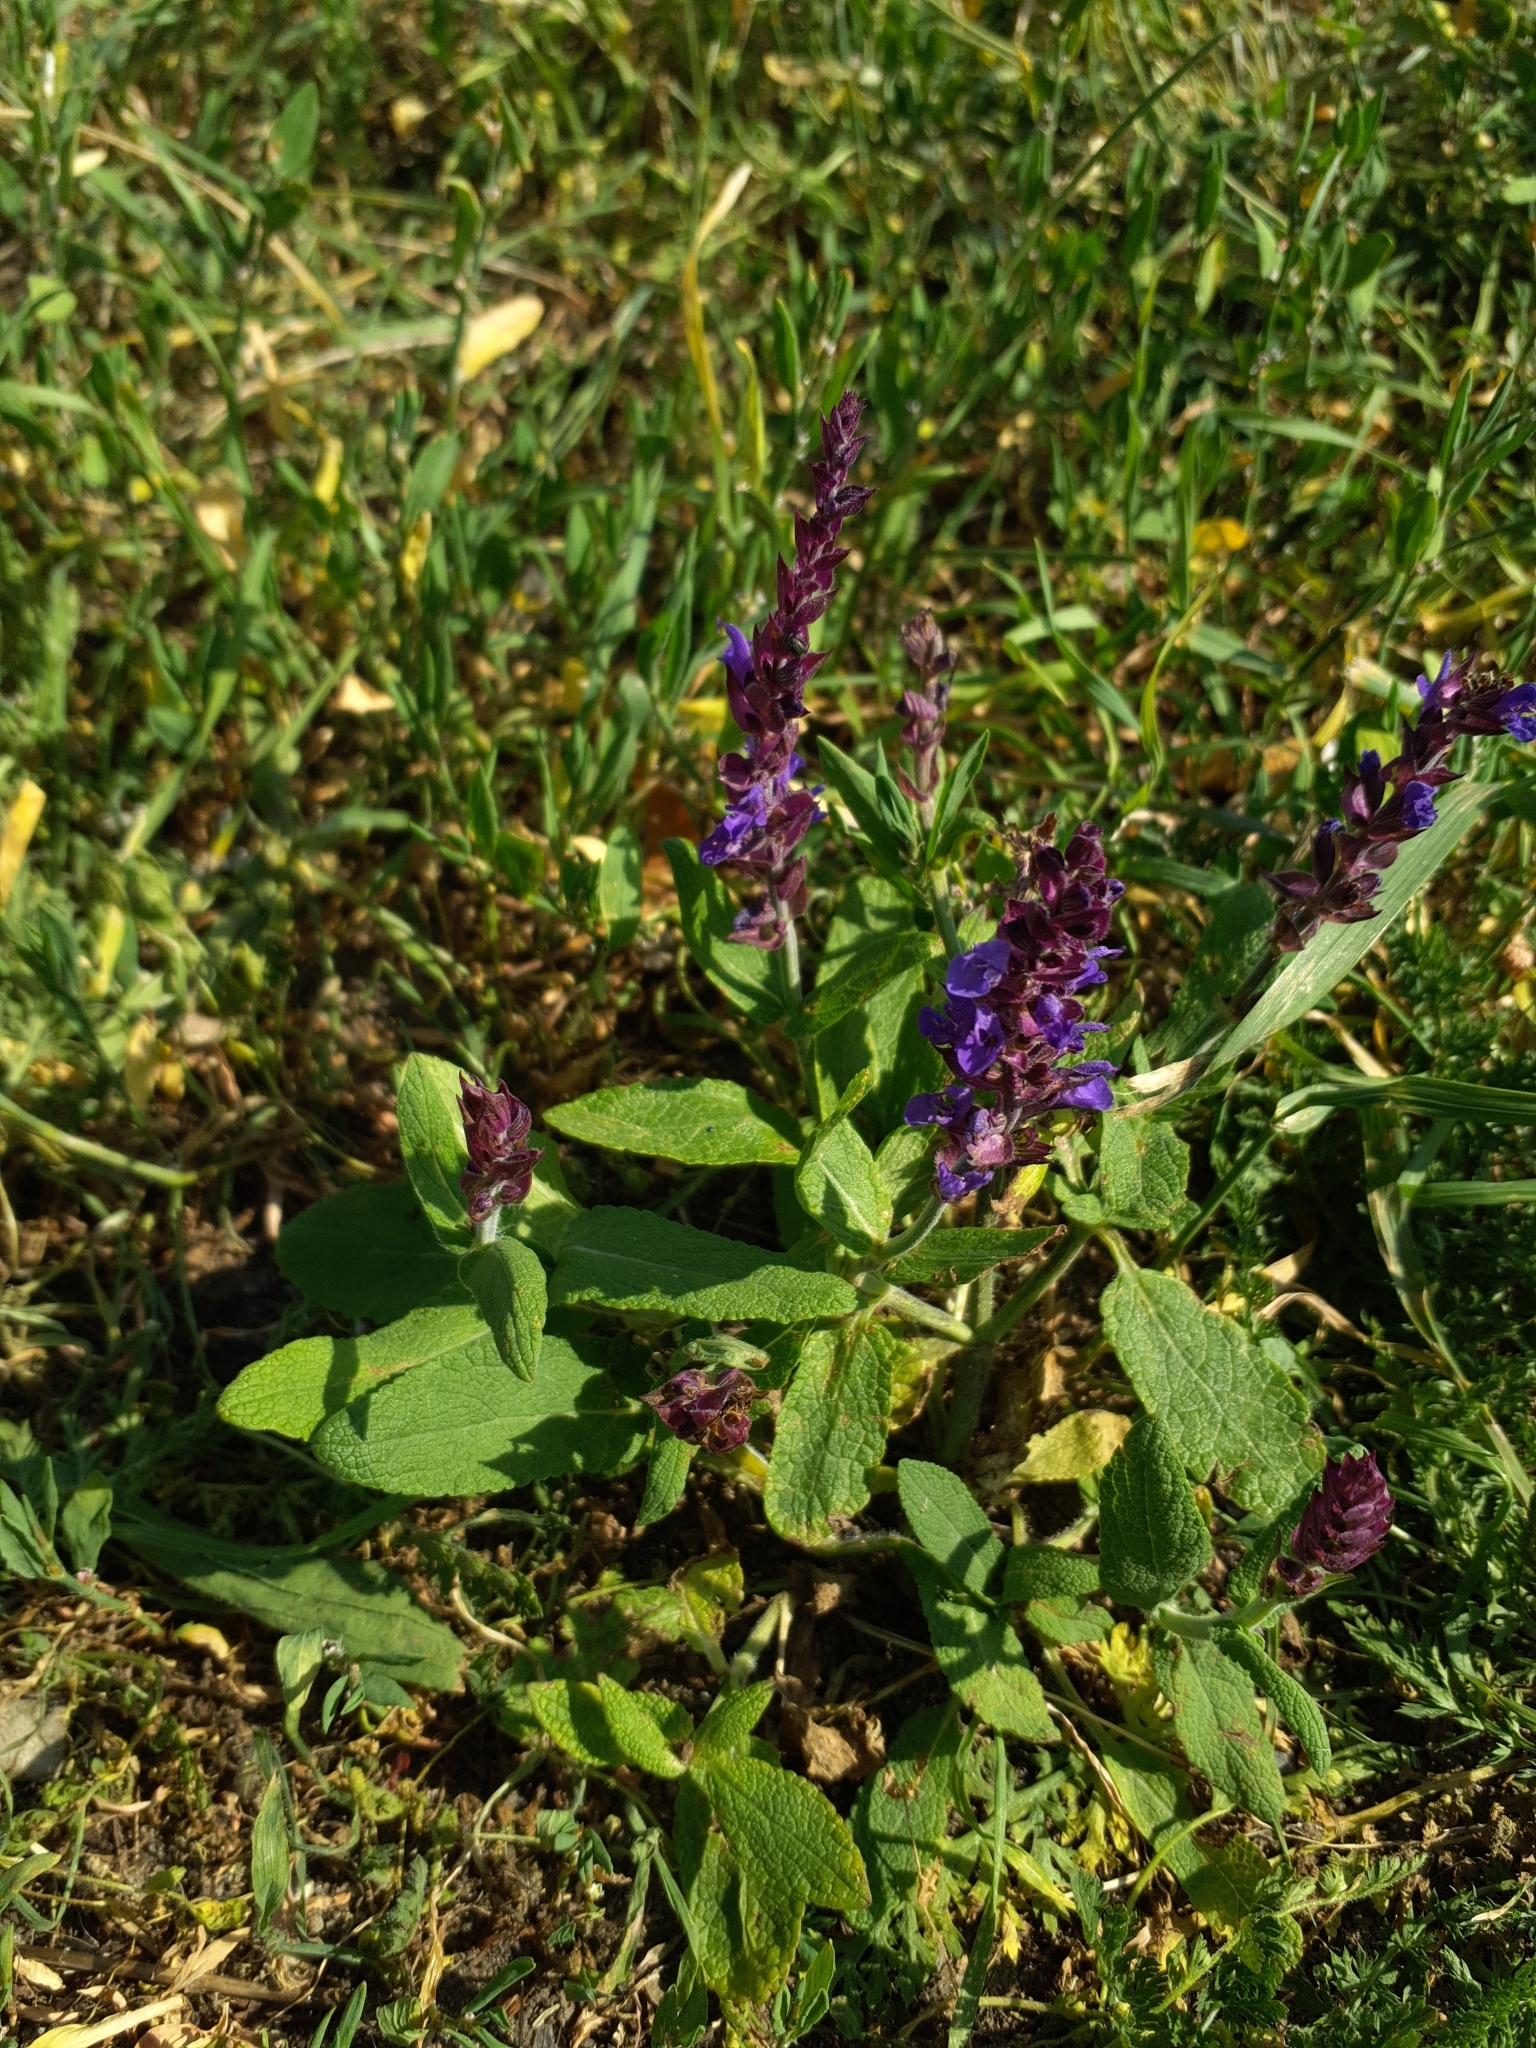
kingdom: Plantae
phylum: Tracheophyta
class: Magnoliopsida
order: Lamiales
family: Lamiaceae
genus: Salvia
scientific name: Salvia nemorosa
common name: Balkan clary
